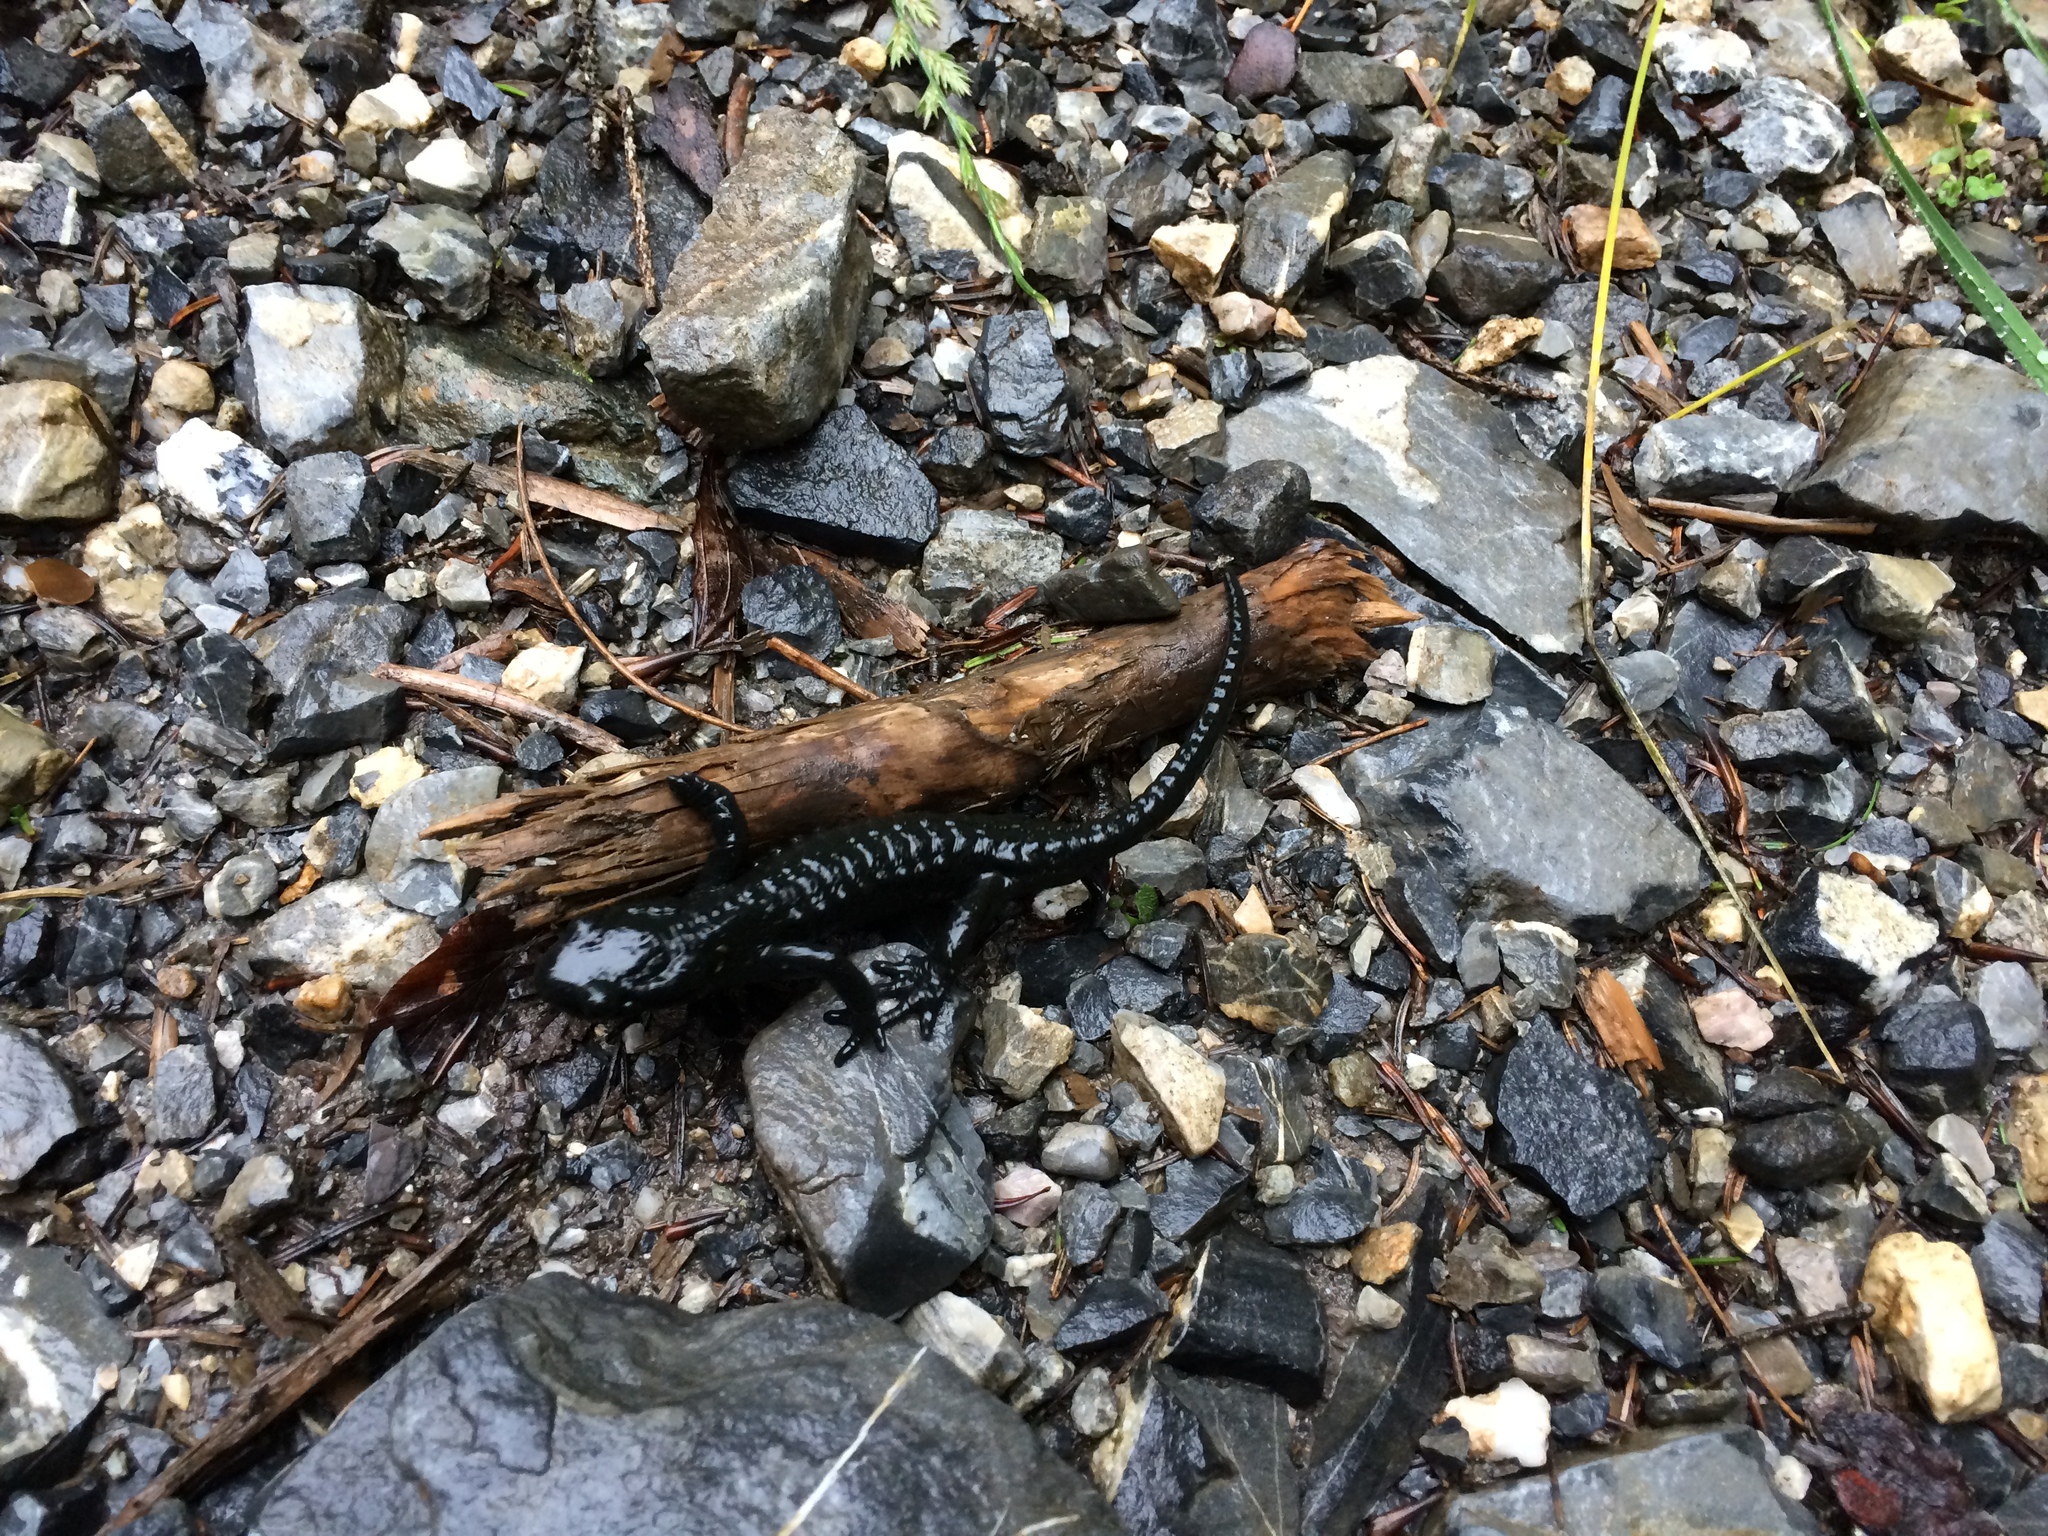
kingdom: Animalia
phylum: Chordata
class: Amphibia
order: Caudata
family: Salamandridae
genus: Salamandra
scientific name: Salamandra atra
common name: Alpine salamander
